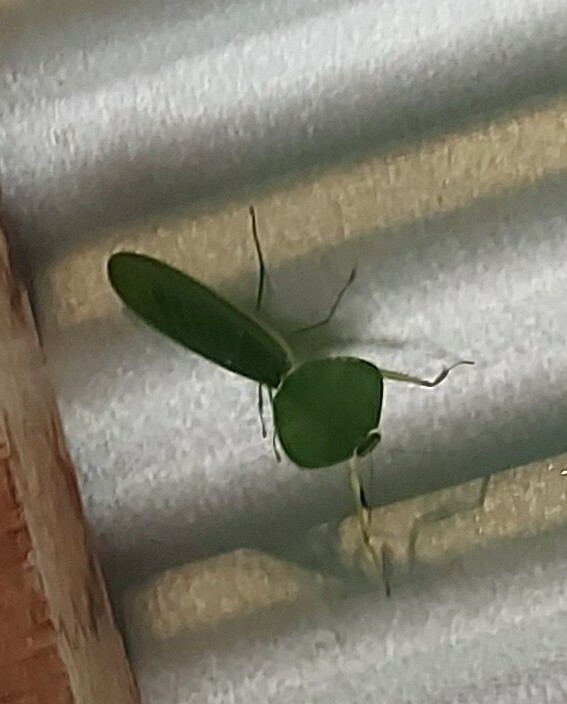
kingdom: Animalia
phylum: Arthropoda
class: Insecta
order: Mantodea
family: Mantidae
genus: Choeradodis
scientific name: Choeradodis rhombicollis
